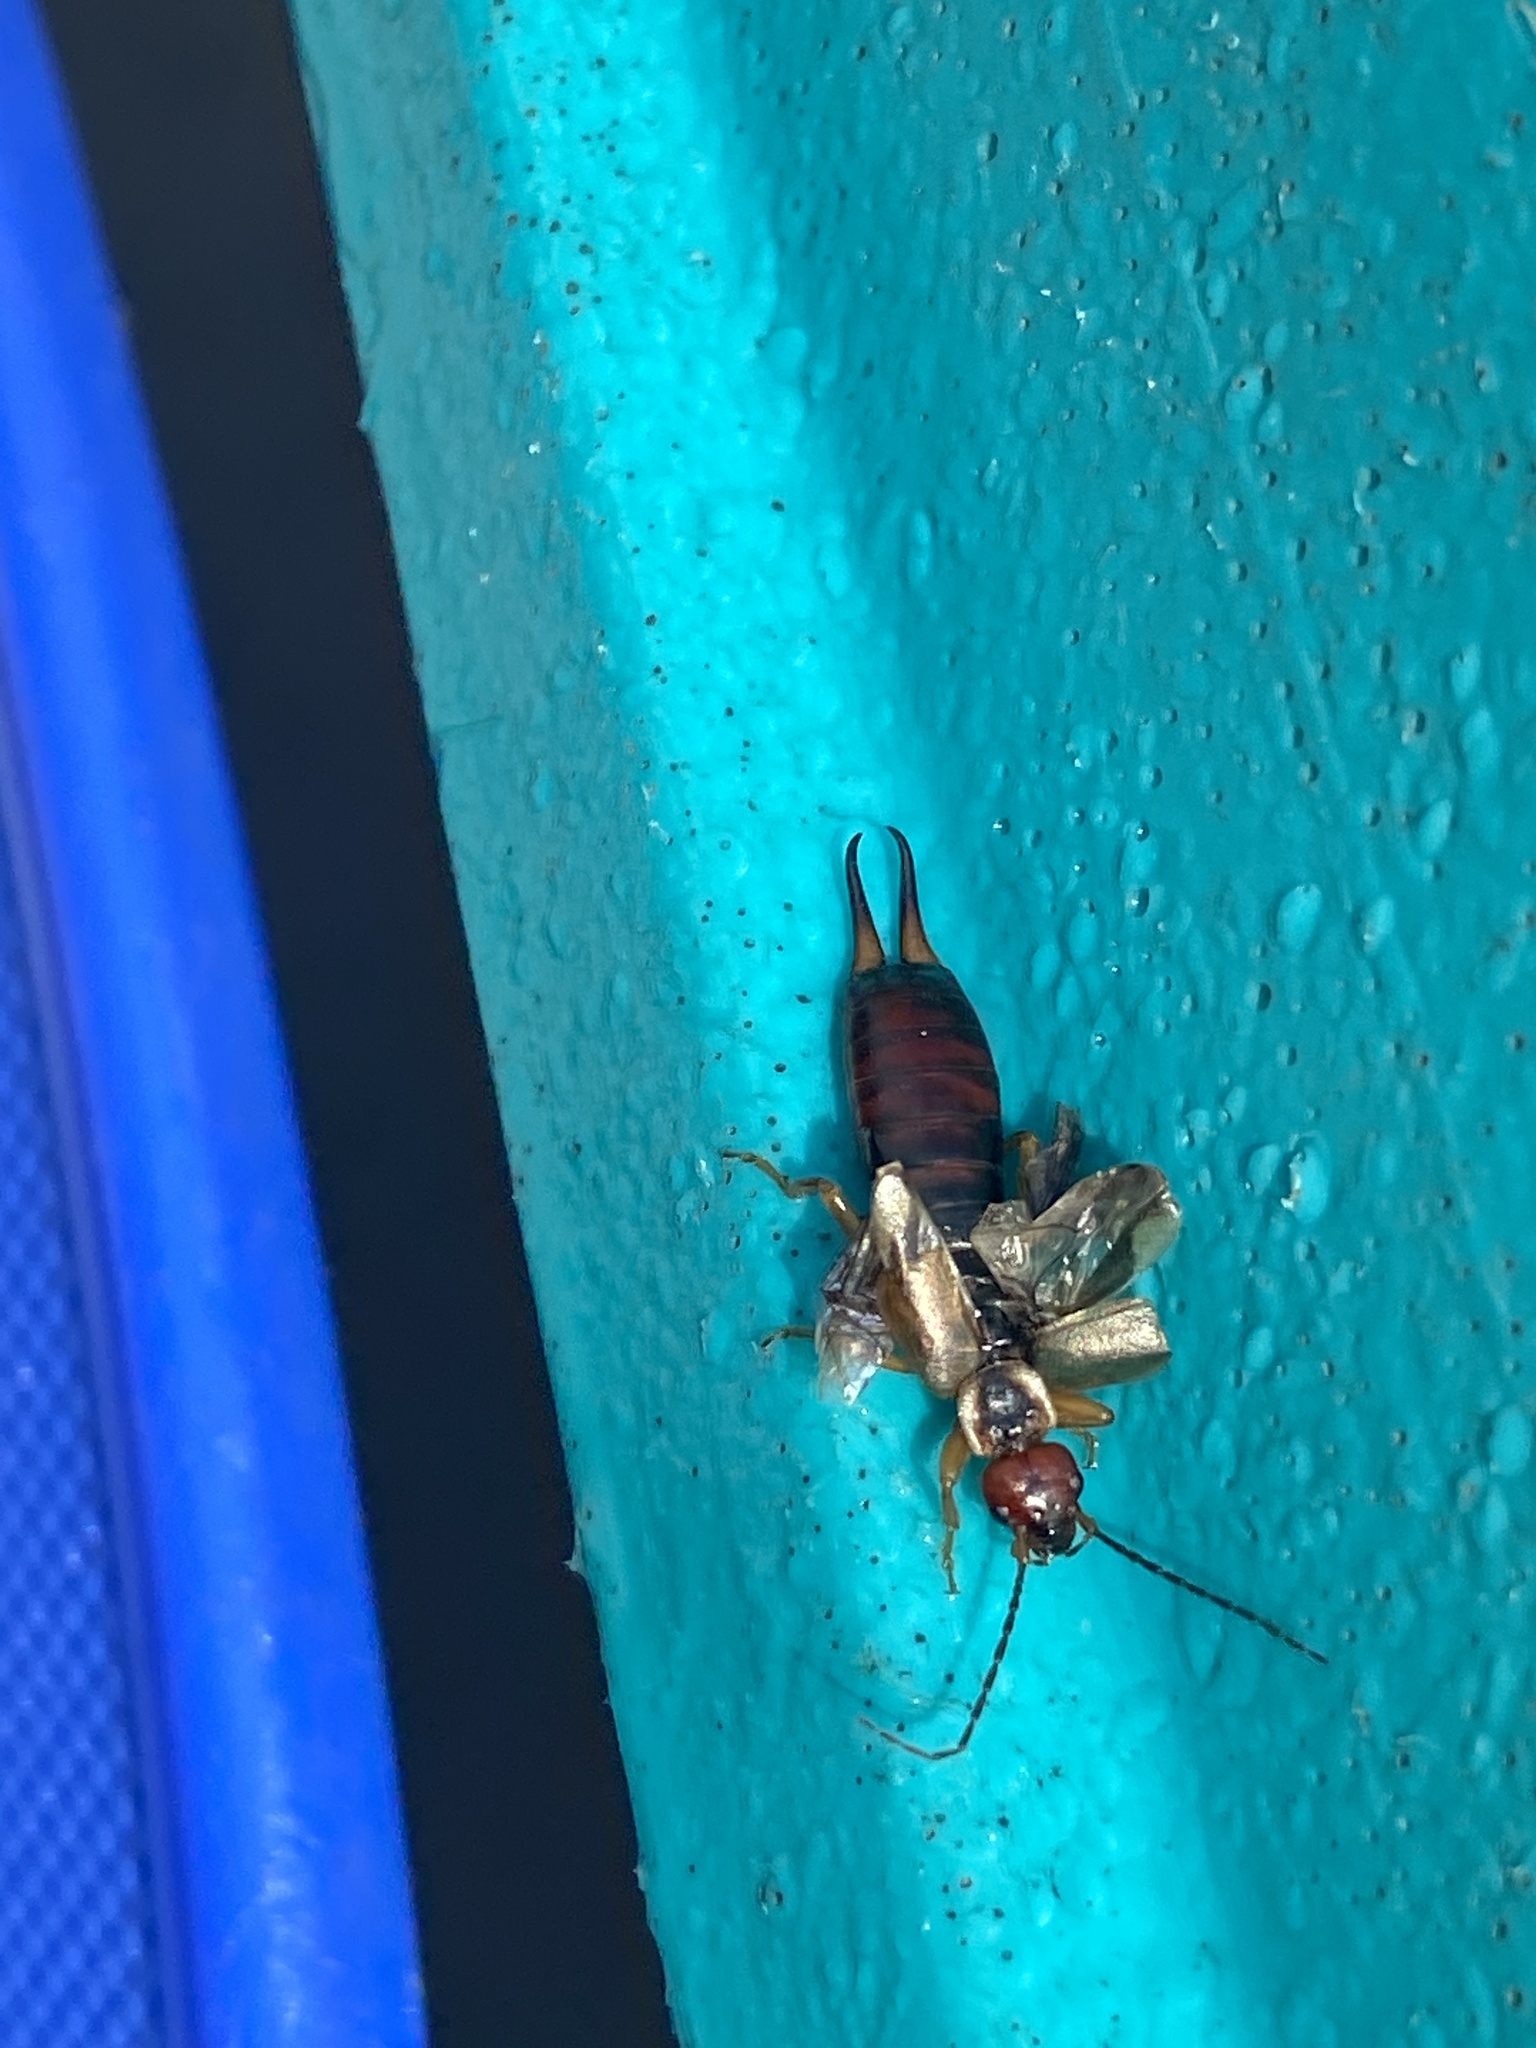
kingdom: Animalia
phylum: Arthropoda
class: Insecta
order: Dermaptera
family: Forficulidae
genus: Forficula
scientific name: Forficula
